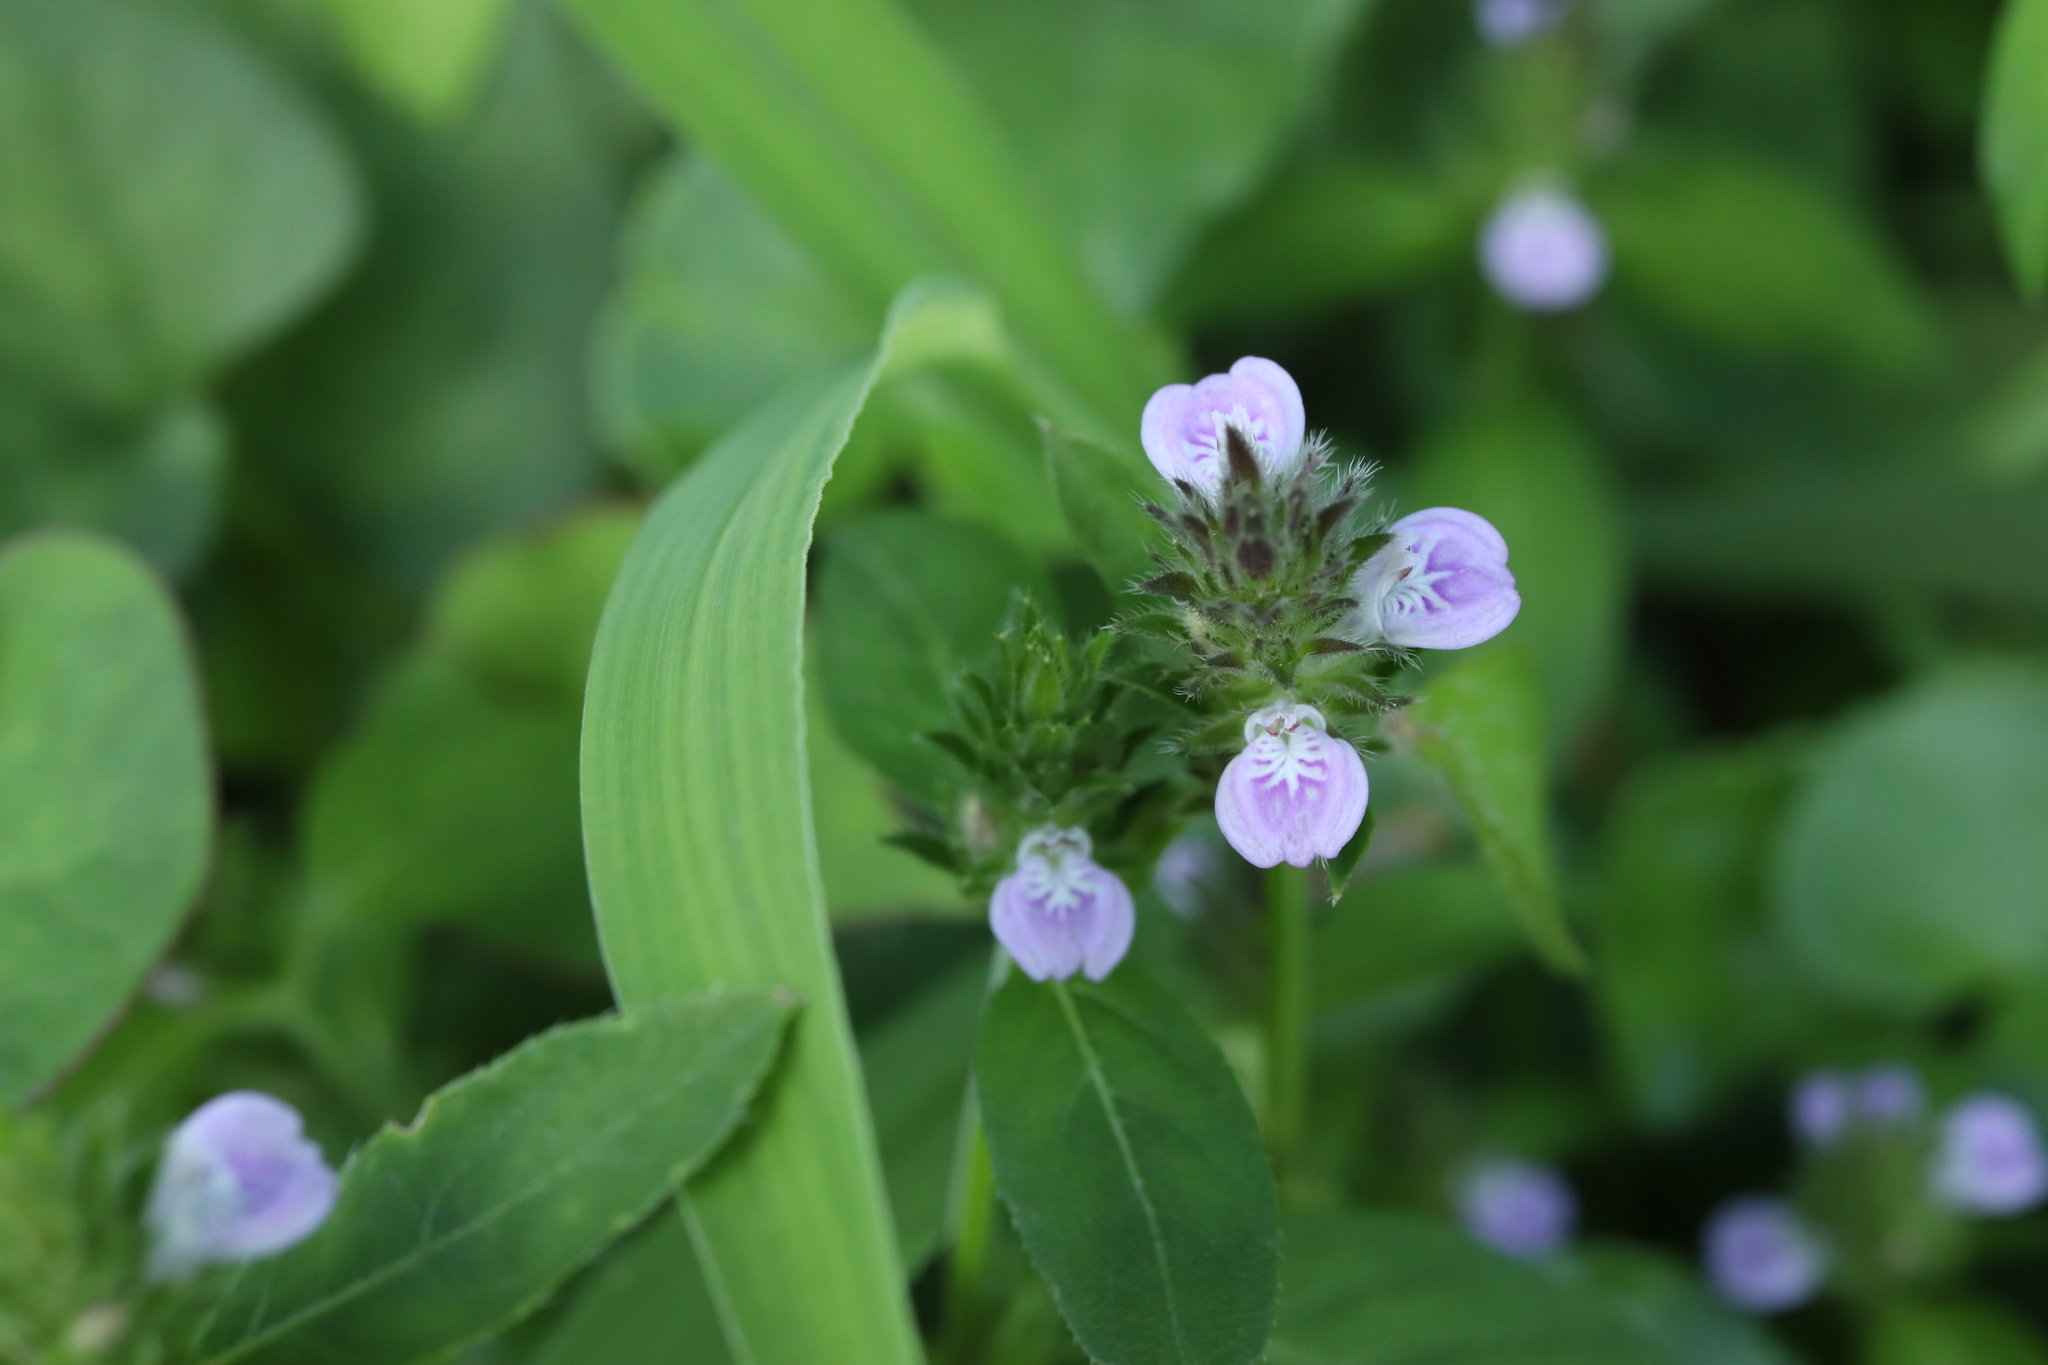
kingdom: Plantae
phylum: Tracheophyta
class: Magnoliopsida
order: Lamiales
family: Acanthaceae
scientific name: Acanthaceae
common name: Acanthaceae
